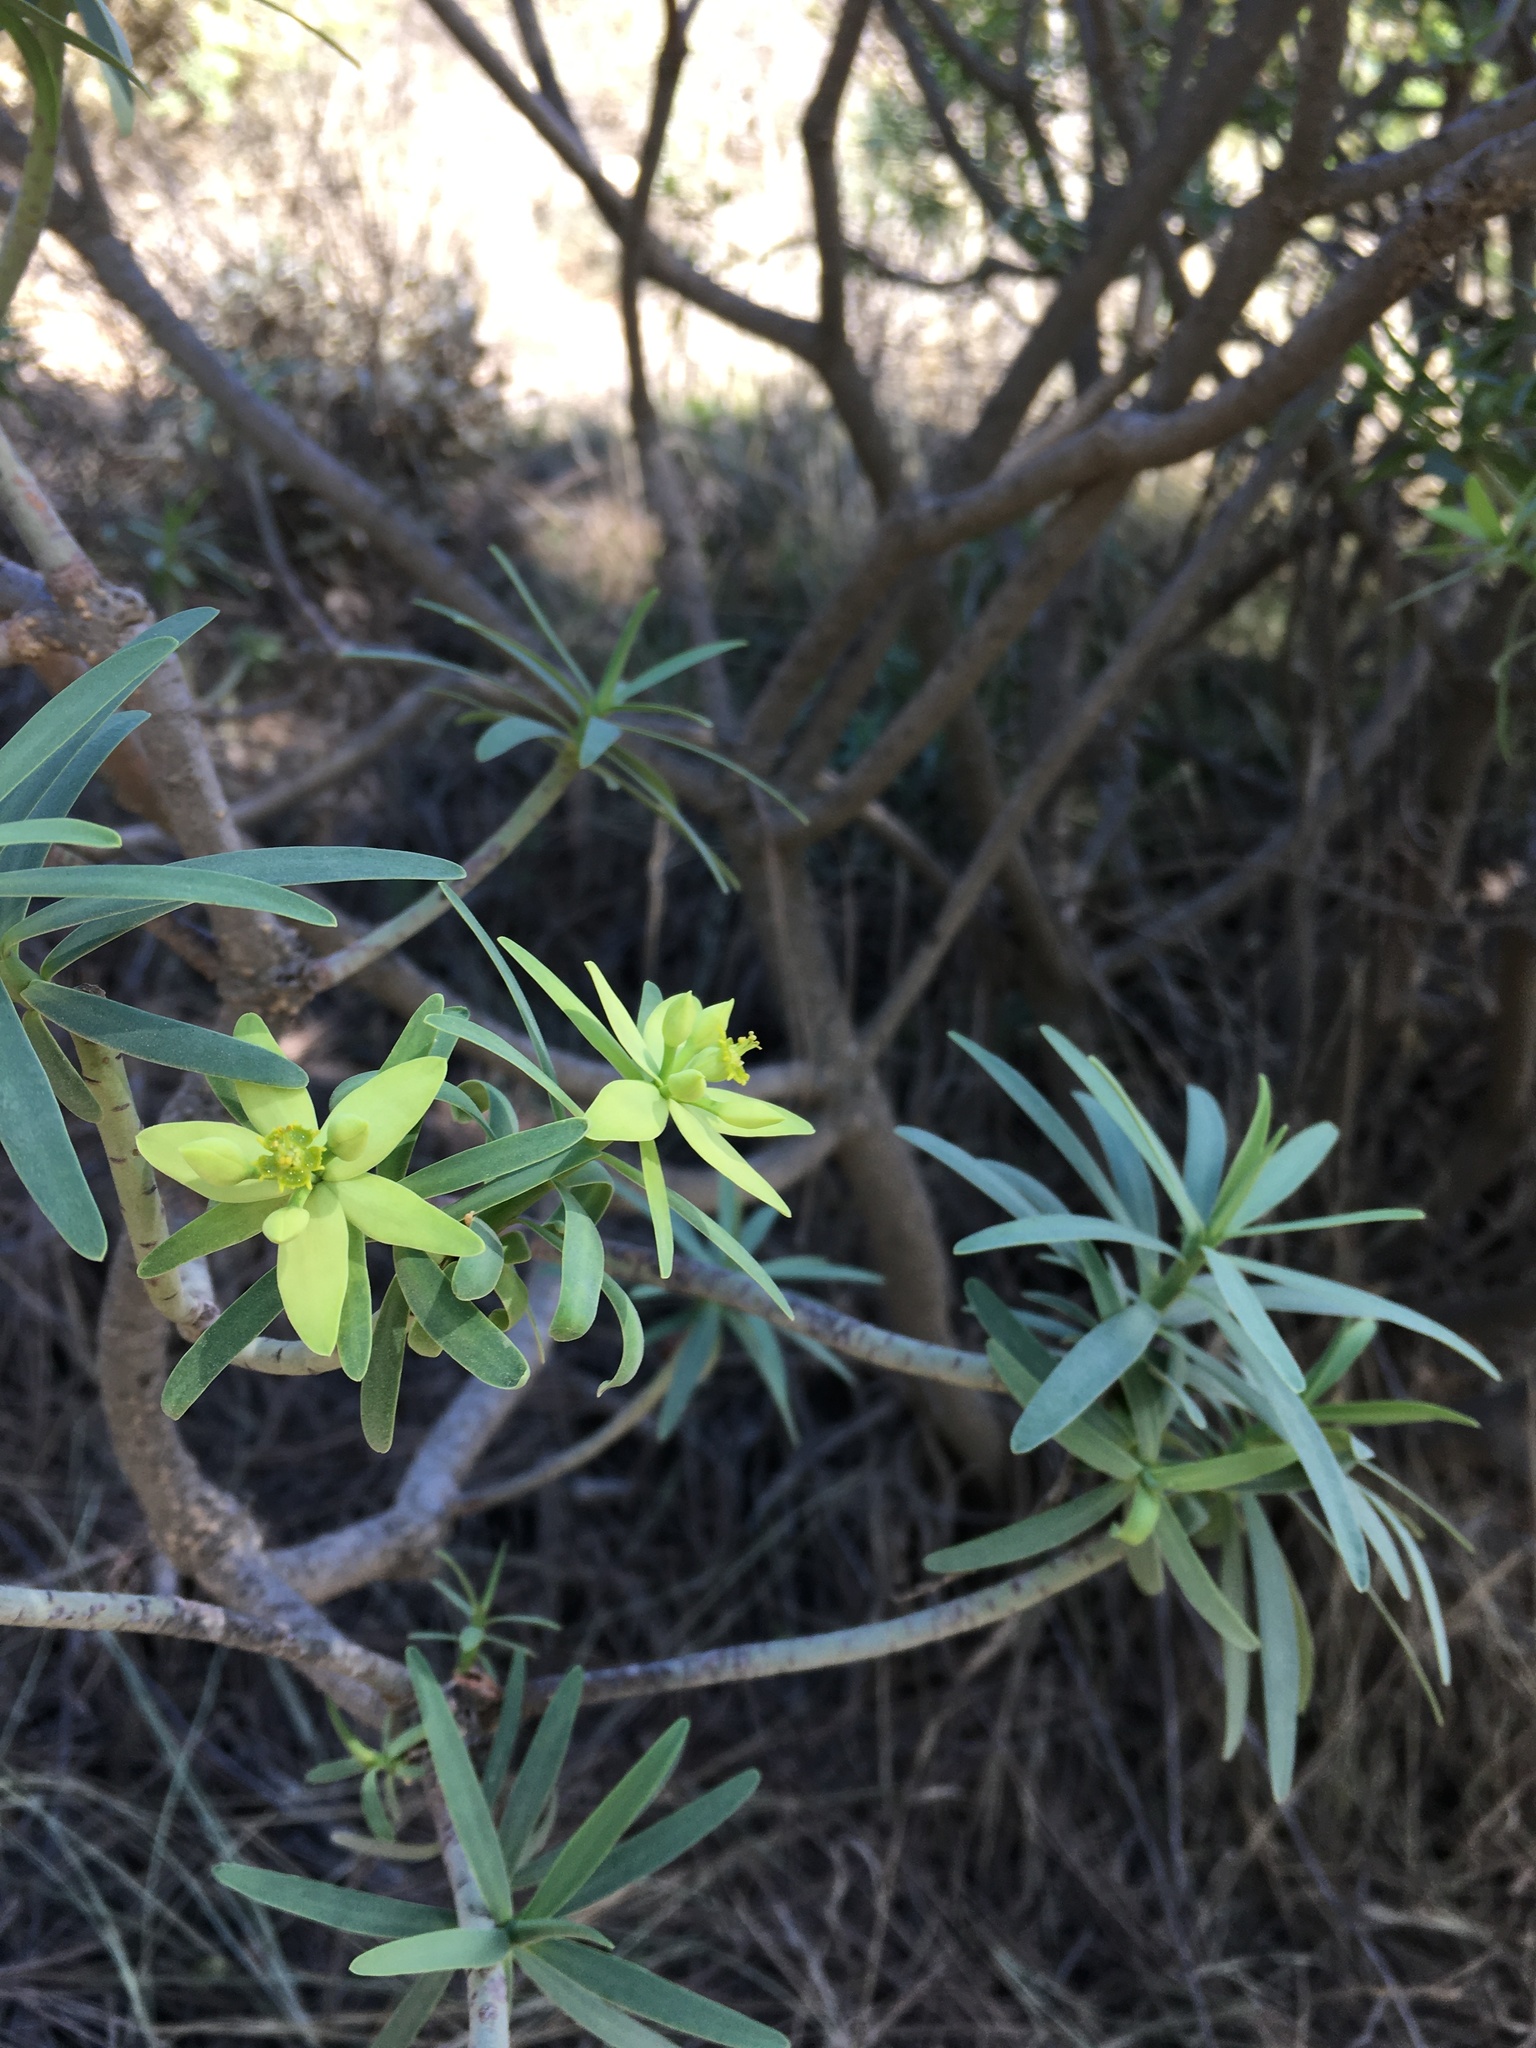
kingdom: Plantae
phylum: Tracheophyta
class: Magnoliopsida
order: Malpighiales
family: Euphorbiaceae
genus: Euphorbia
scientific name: Euphorbia regis-jubae
